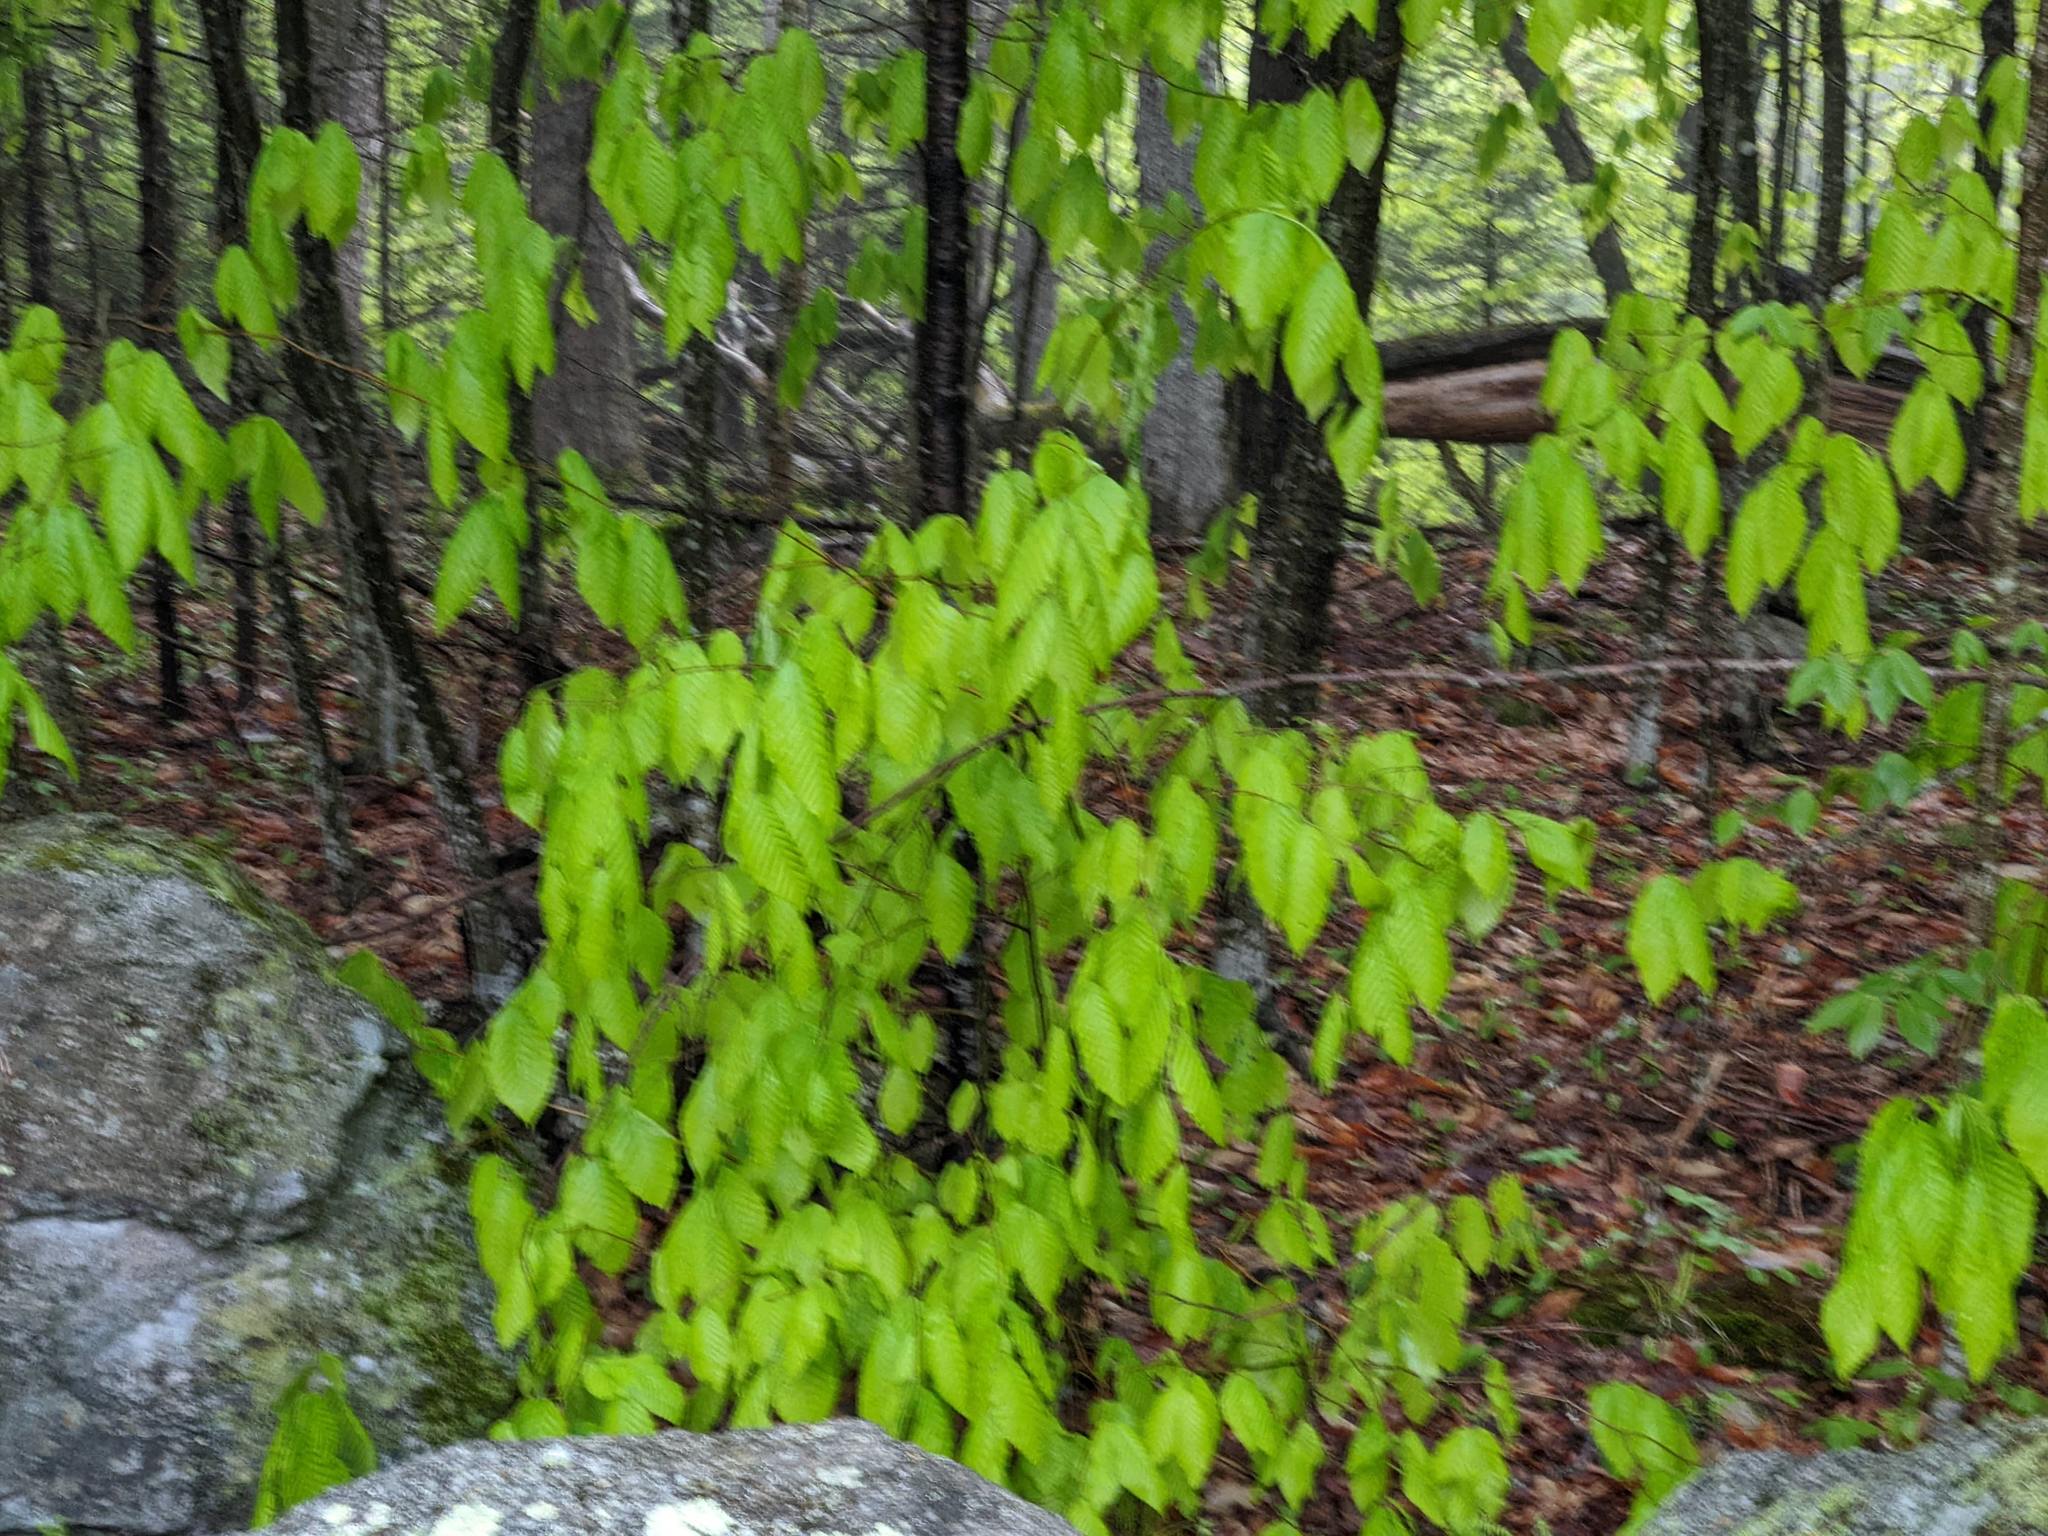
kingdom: Plantae
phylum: Tracheophyta
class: Magnoliopsida
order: Fagales
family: Fagaceae
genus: Fagus
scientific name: Fagus grandifolia
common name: American beech
